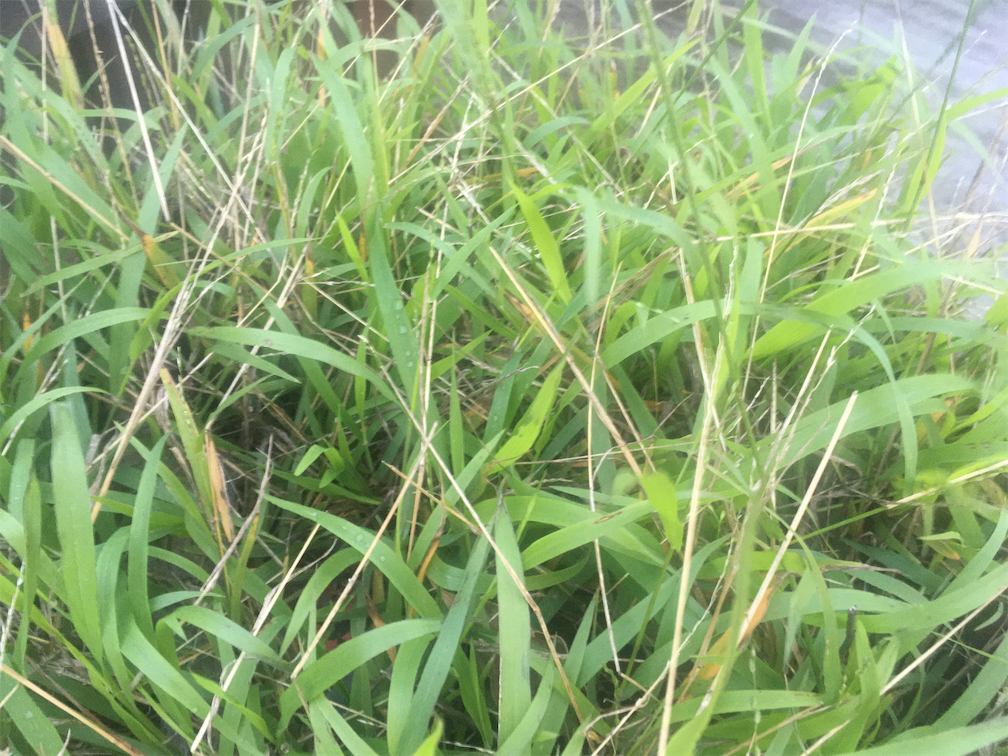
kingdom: Plantae
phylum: Tracheophyta
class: Liliopsida
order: Poales
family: Poaceae
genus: Ehrharta
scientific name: Ehrharta erecta
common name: Panic veldtgrass
